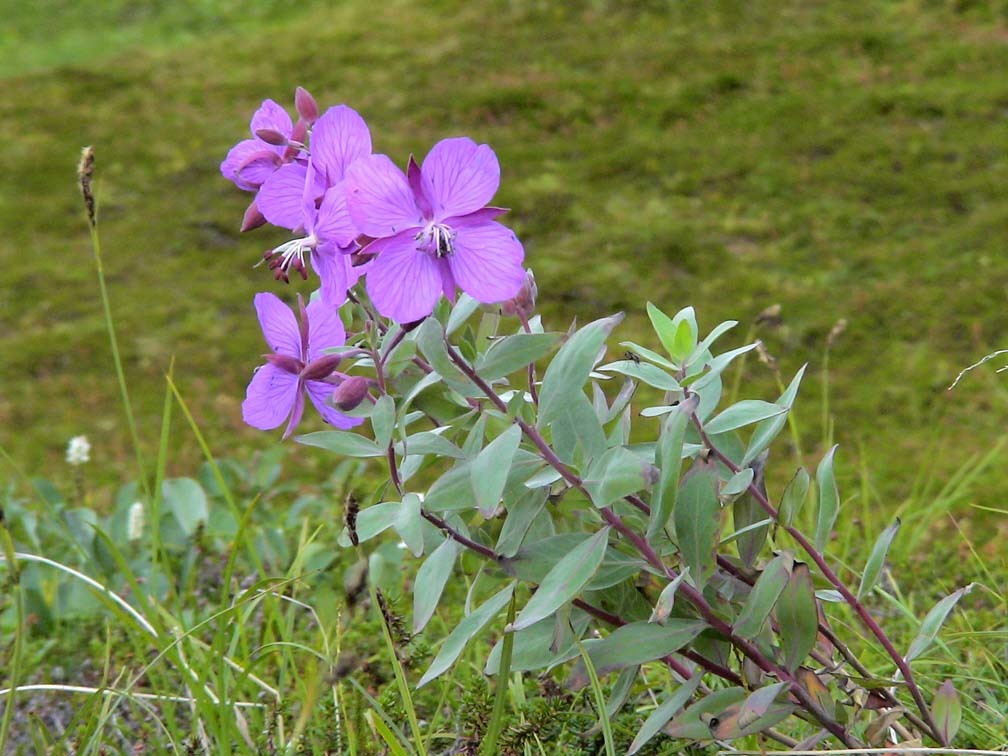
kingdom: Plantae
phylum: Tracheophyta
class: Magnoliopsida
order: Myrtales
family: Onagraceae
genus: Chamaenerion
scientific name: Chamaenerion latifolium
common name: Dwarf fireweed
